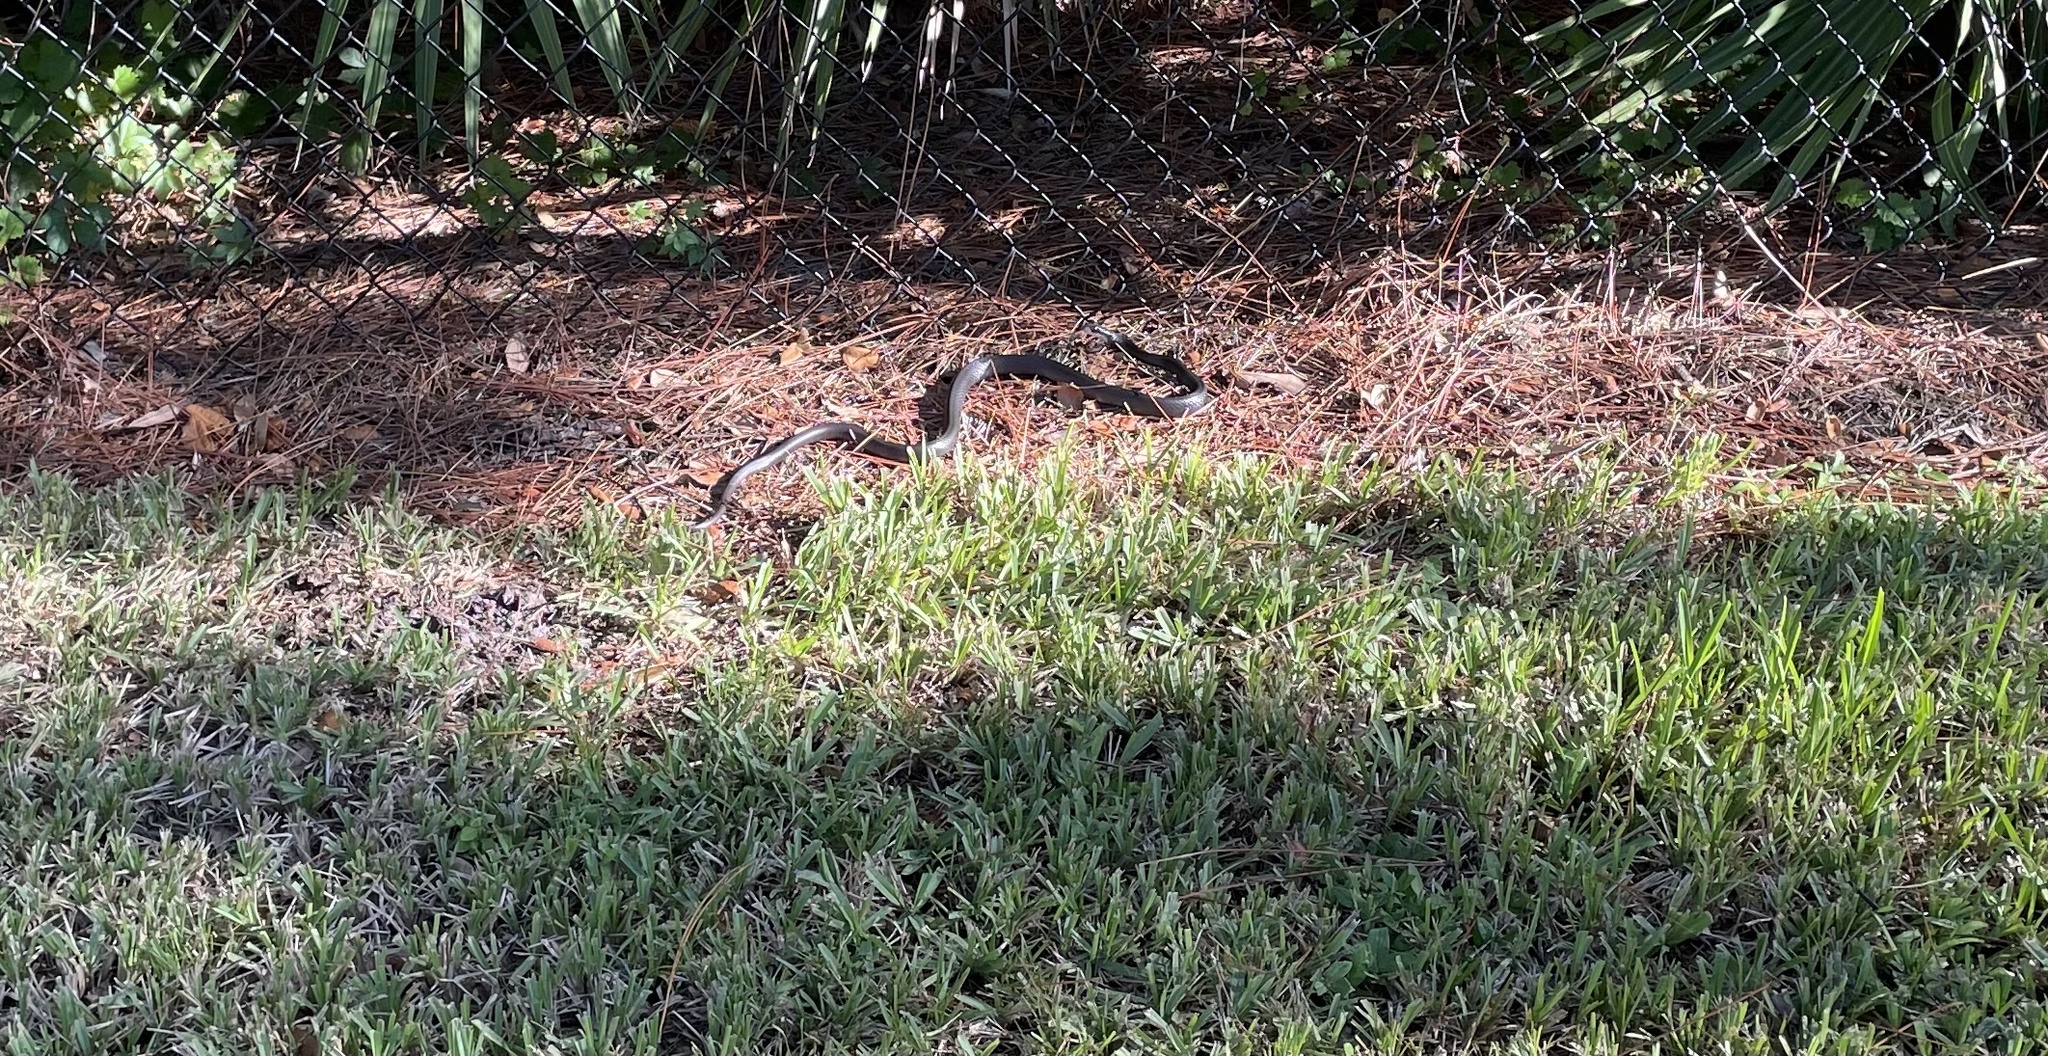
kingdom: Animalia
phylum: Chordata
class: Squamata
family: Colubridae
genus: Coluber
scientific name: Coluber constrictor
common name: Eastern racer
